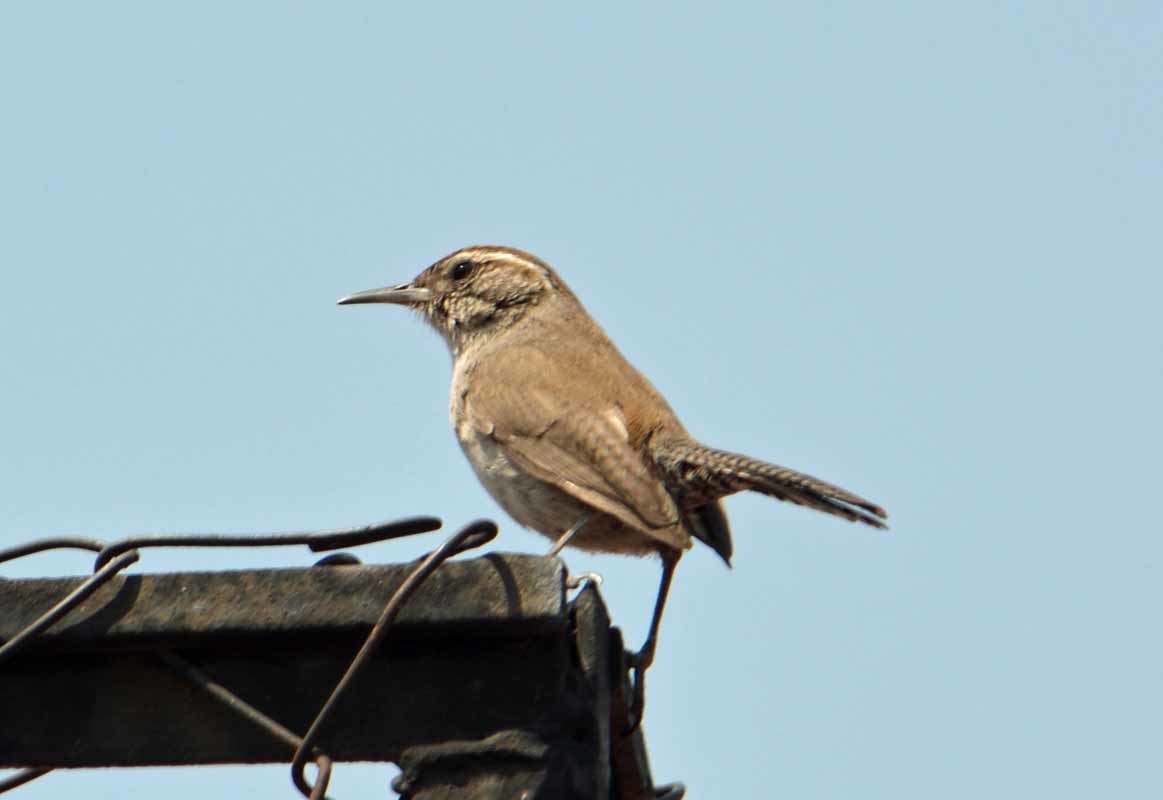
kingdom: Animalia
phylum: Chordata
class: Aves
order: Passeriformes
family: Troglodytidae
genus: Thryomanes
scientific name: Thryomanes bewickii
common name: Bewick's wren
